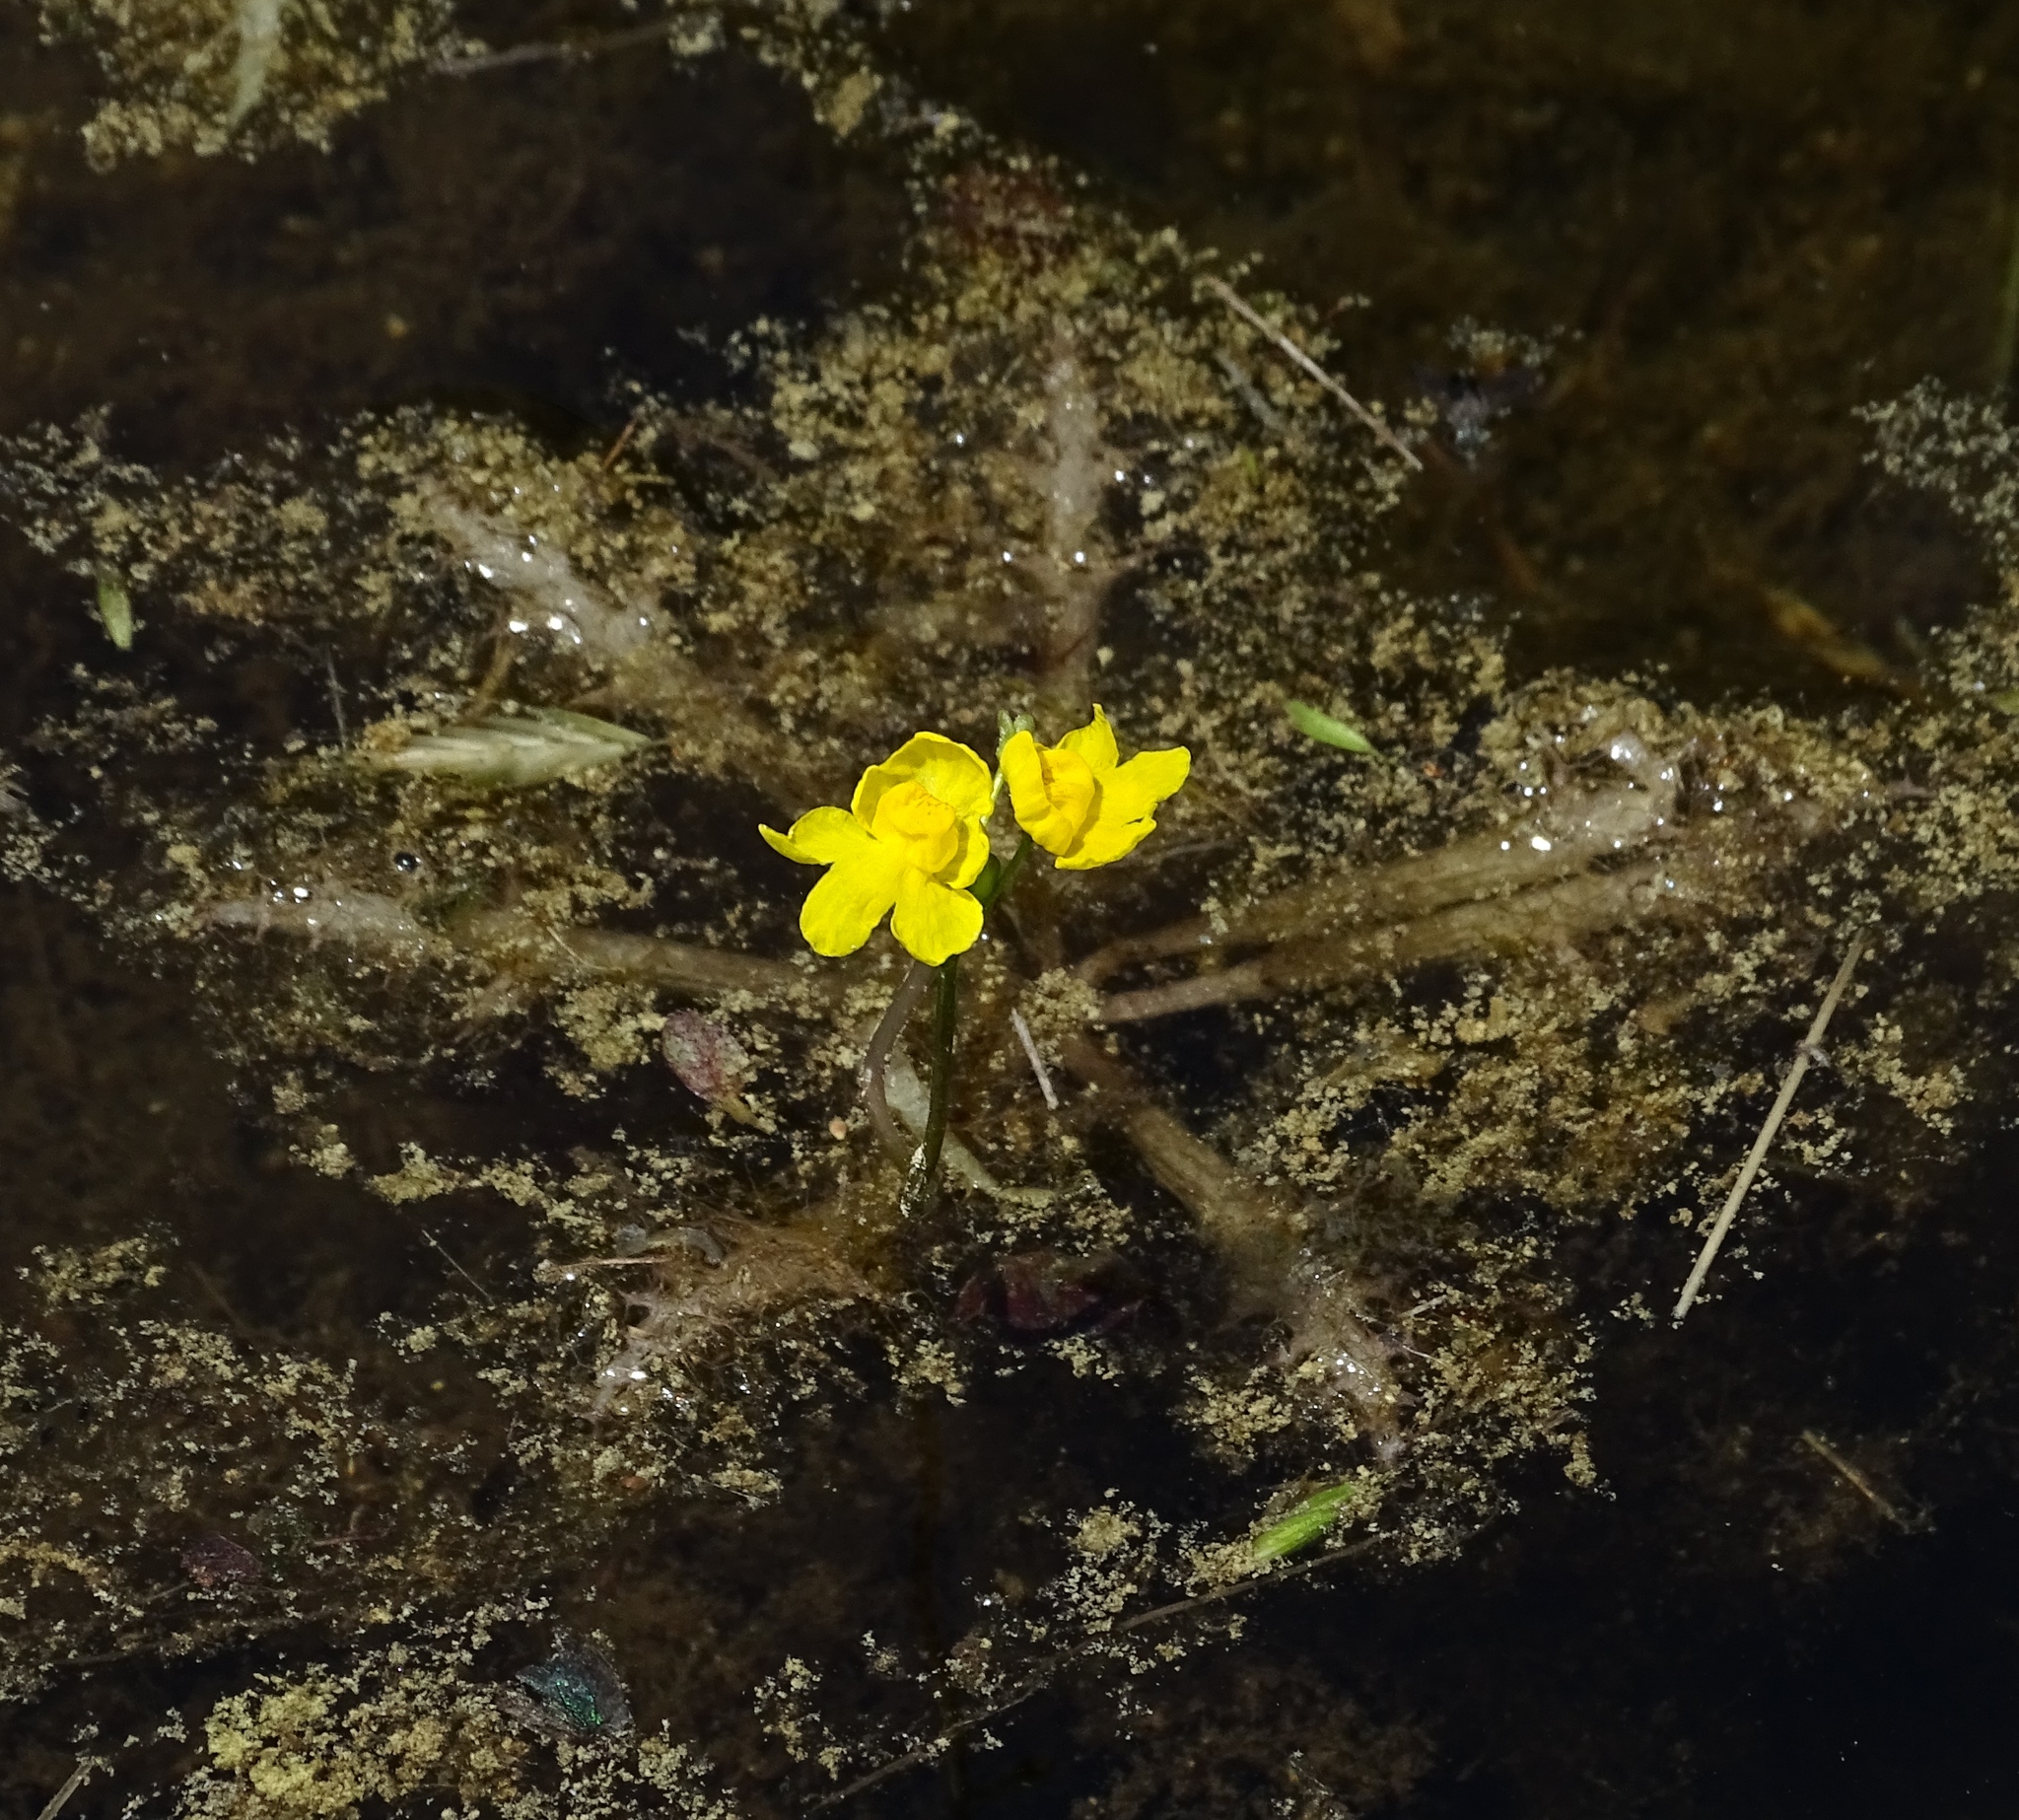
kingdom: Plantae
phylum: Tracheophyta
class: Magnoliopsida
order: Lamiales
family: Lentibulariaceae
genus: Utricularia
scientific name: Utricularia inflata
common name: Floating bladderwort
